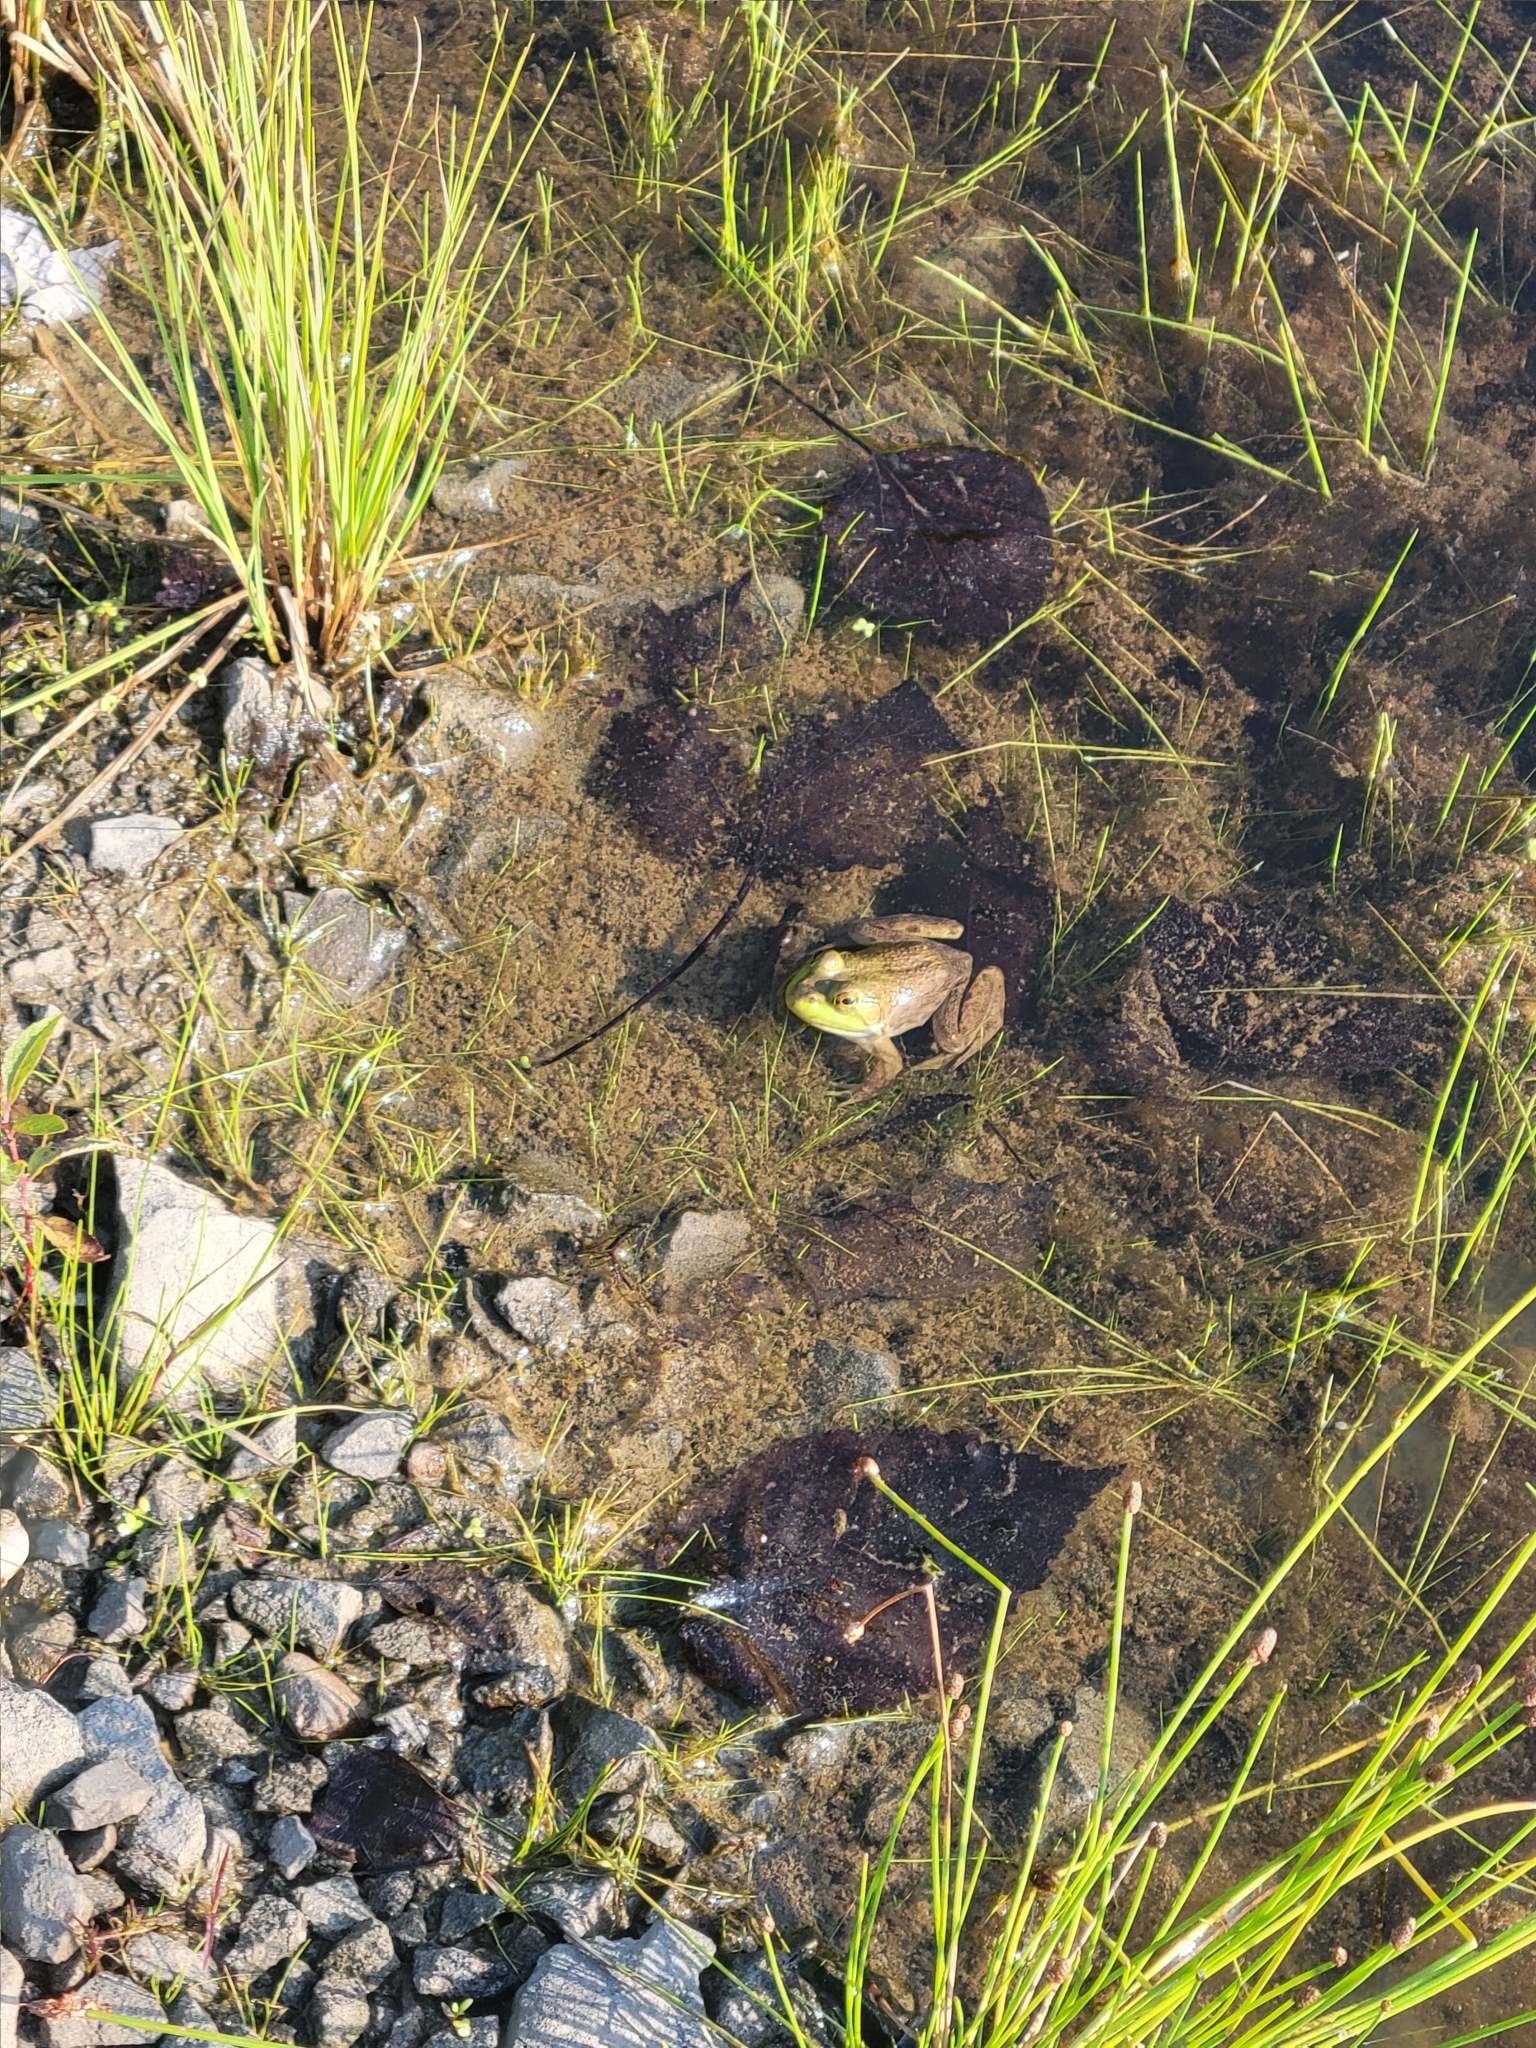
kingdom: Animalia
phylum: Chordata
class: Amphibia
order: Anura
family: Ranidae
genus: Lithobates
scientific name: Lithobates catesbeianus
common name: American bullfrog
